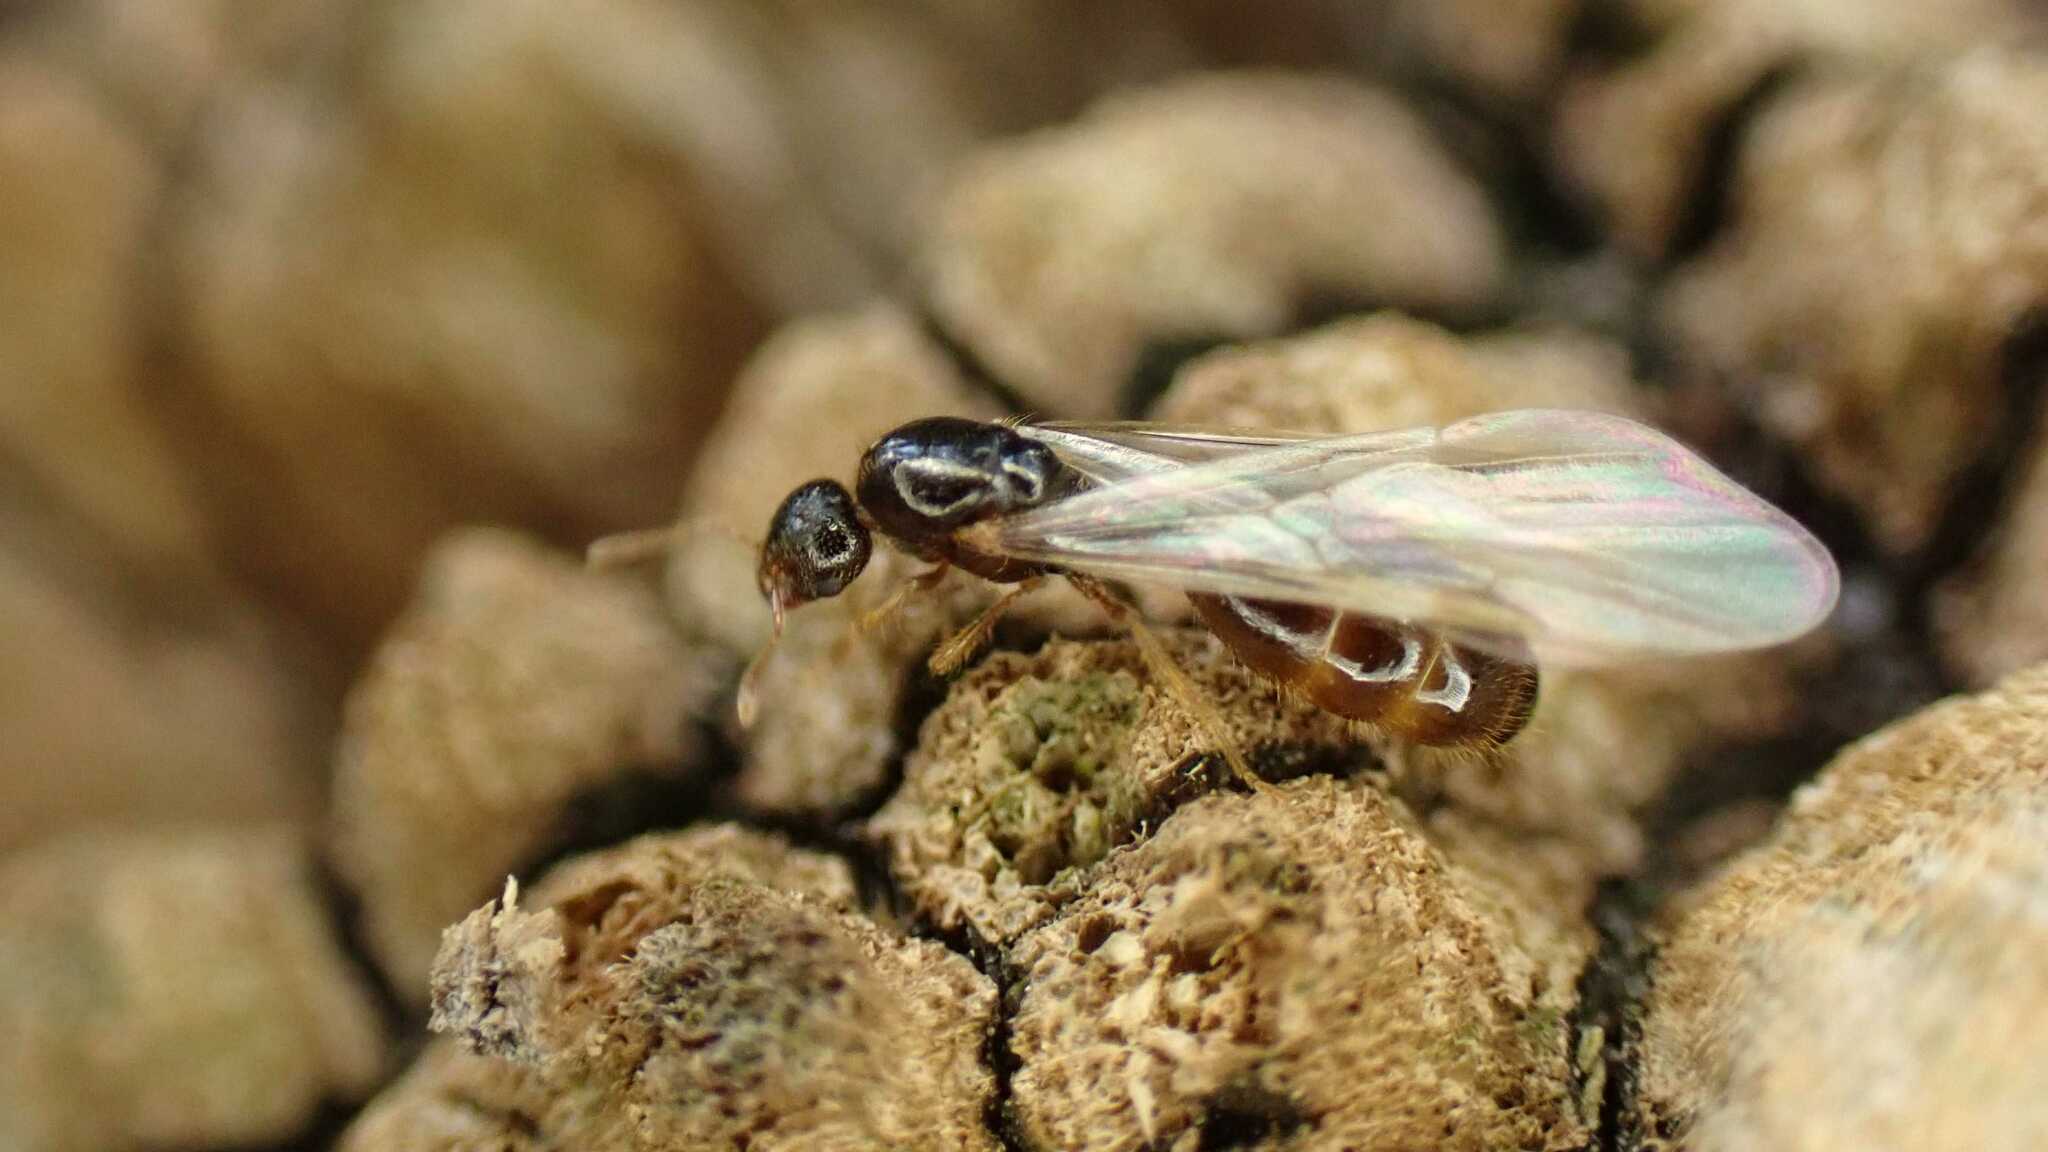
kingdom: Animalia
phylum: Arthropoda
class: Insecta
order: Hymenoptera
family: Formicidae
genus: Solenopsis
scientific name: Solenopsis fugax
